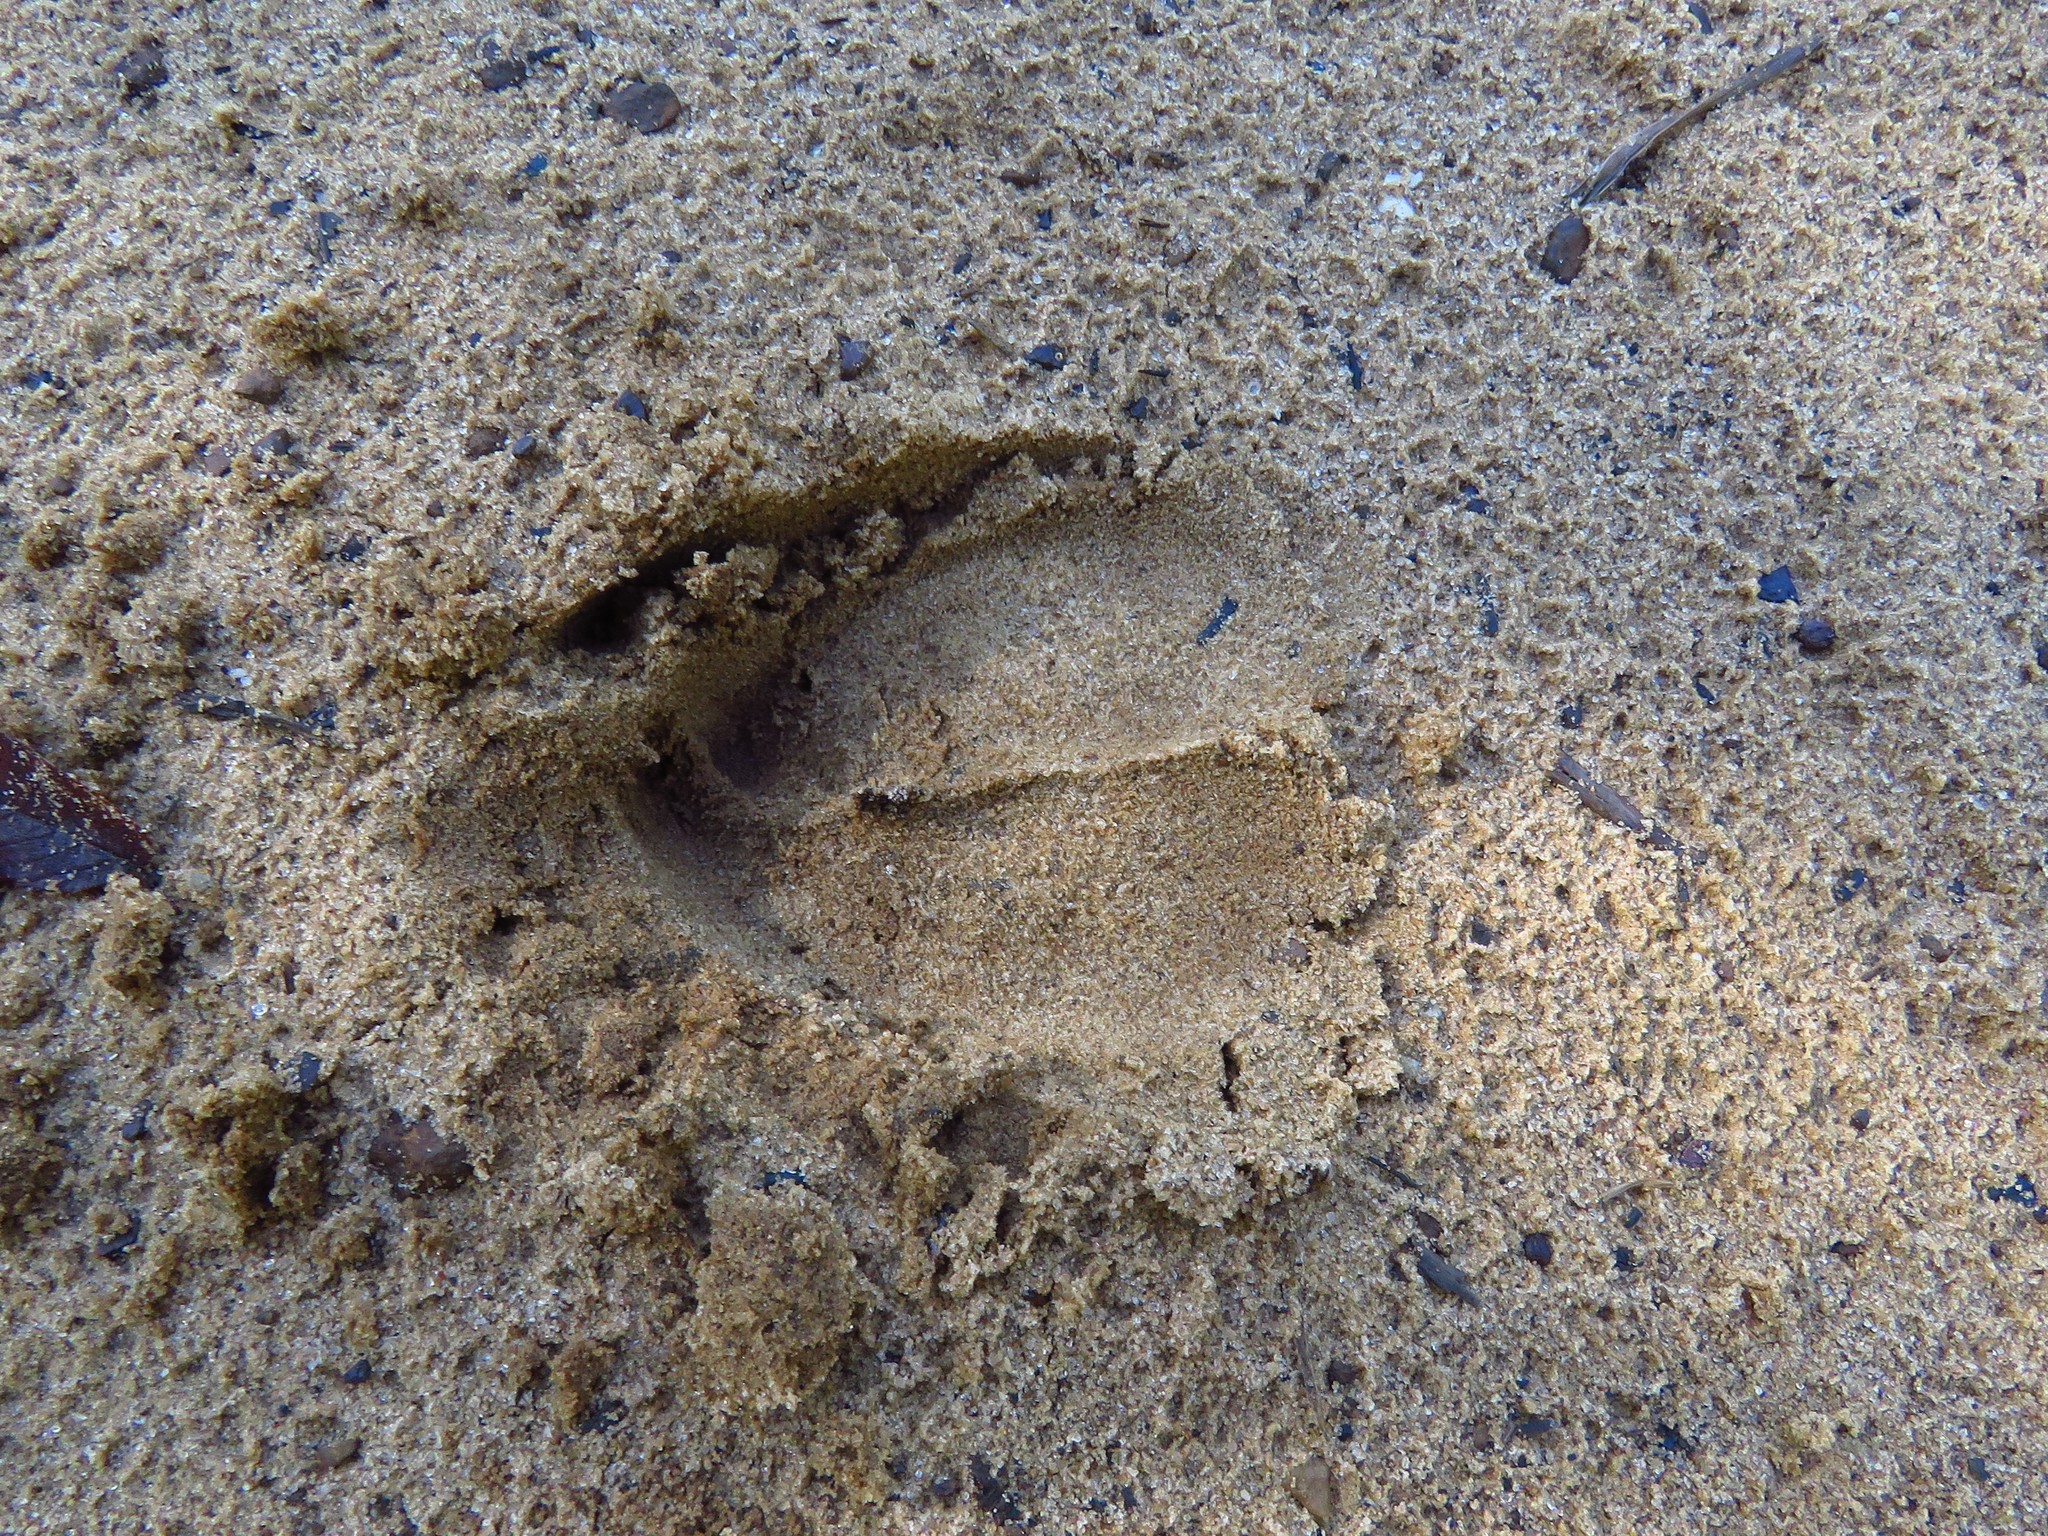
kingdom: Animalia
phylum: Chordata
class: Mammalia
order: Artiodactyla
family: Cervidae
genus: Odocoileus
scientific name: Odocoileus virginianus
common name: White-tailed deer
